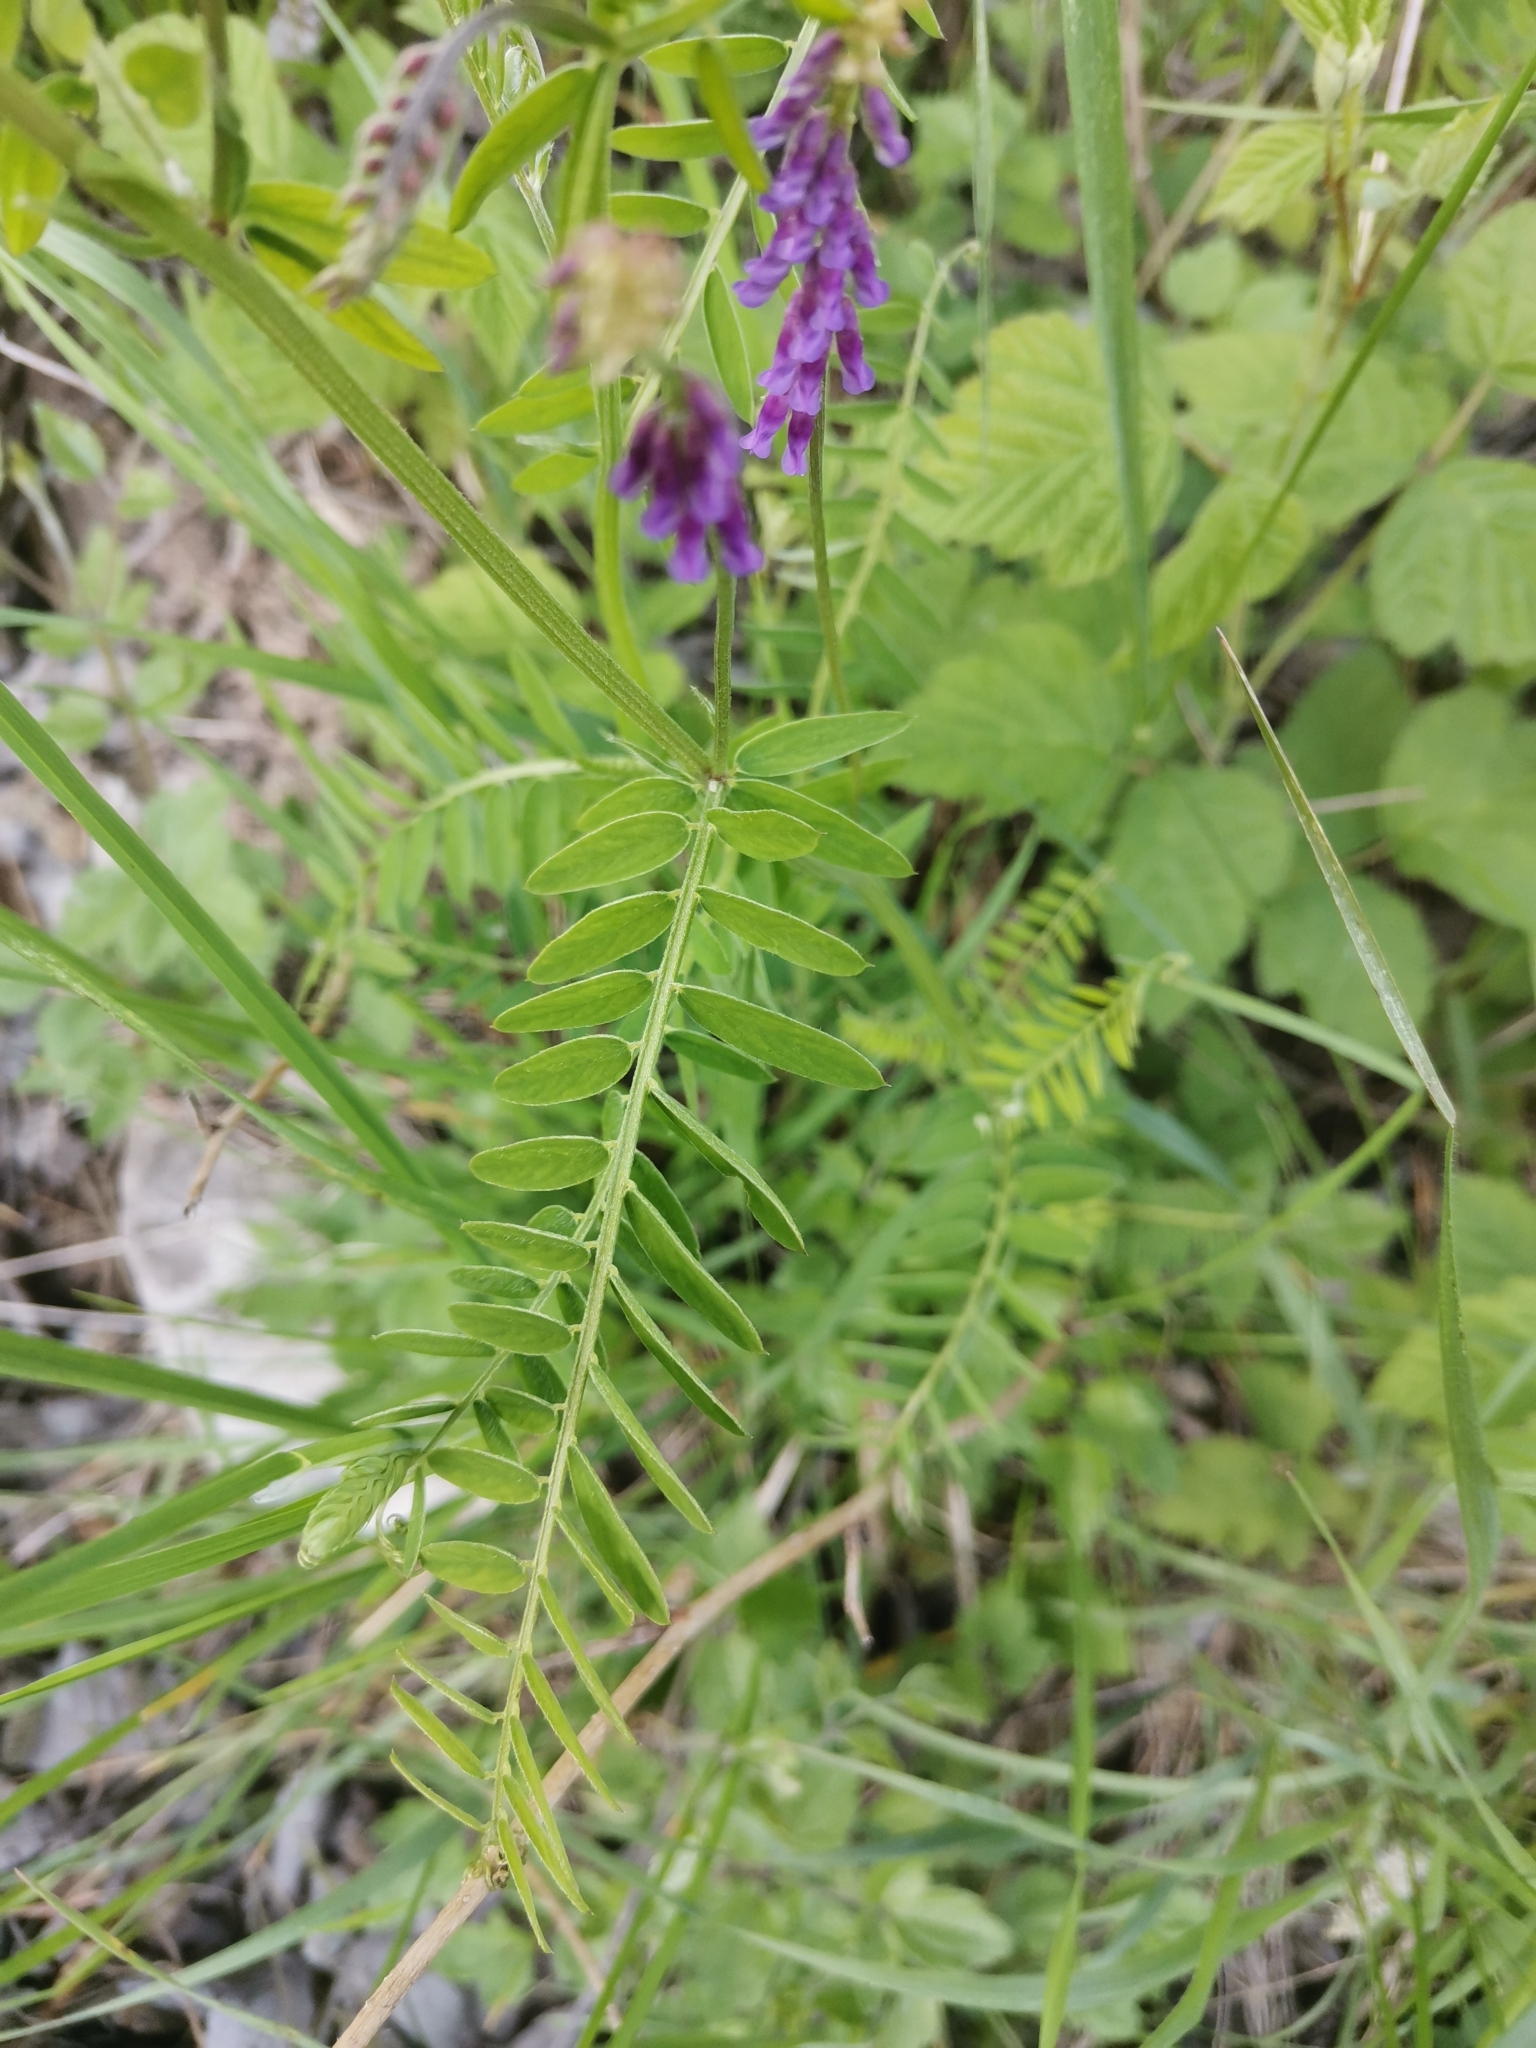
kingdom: Plantae
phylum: Tracheophyta
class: Magnoliopsida
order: Fabales
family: Fabaceae
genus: Vicia
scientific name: Vicia incana
